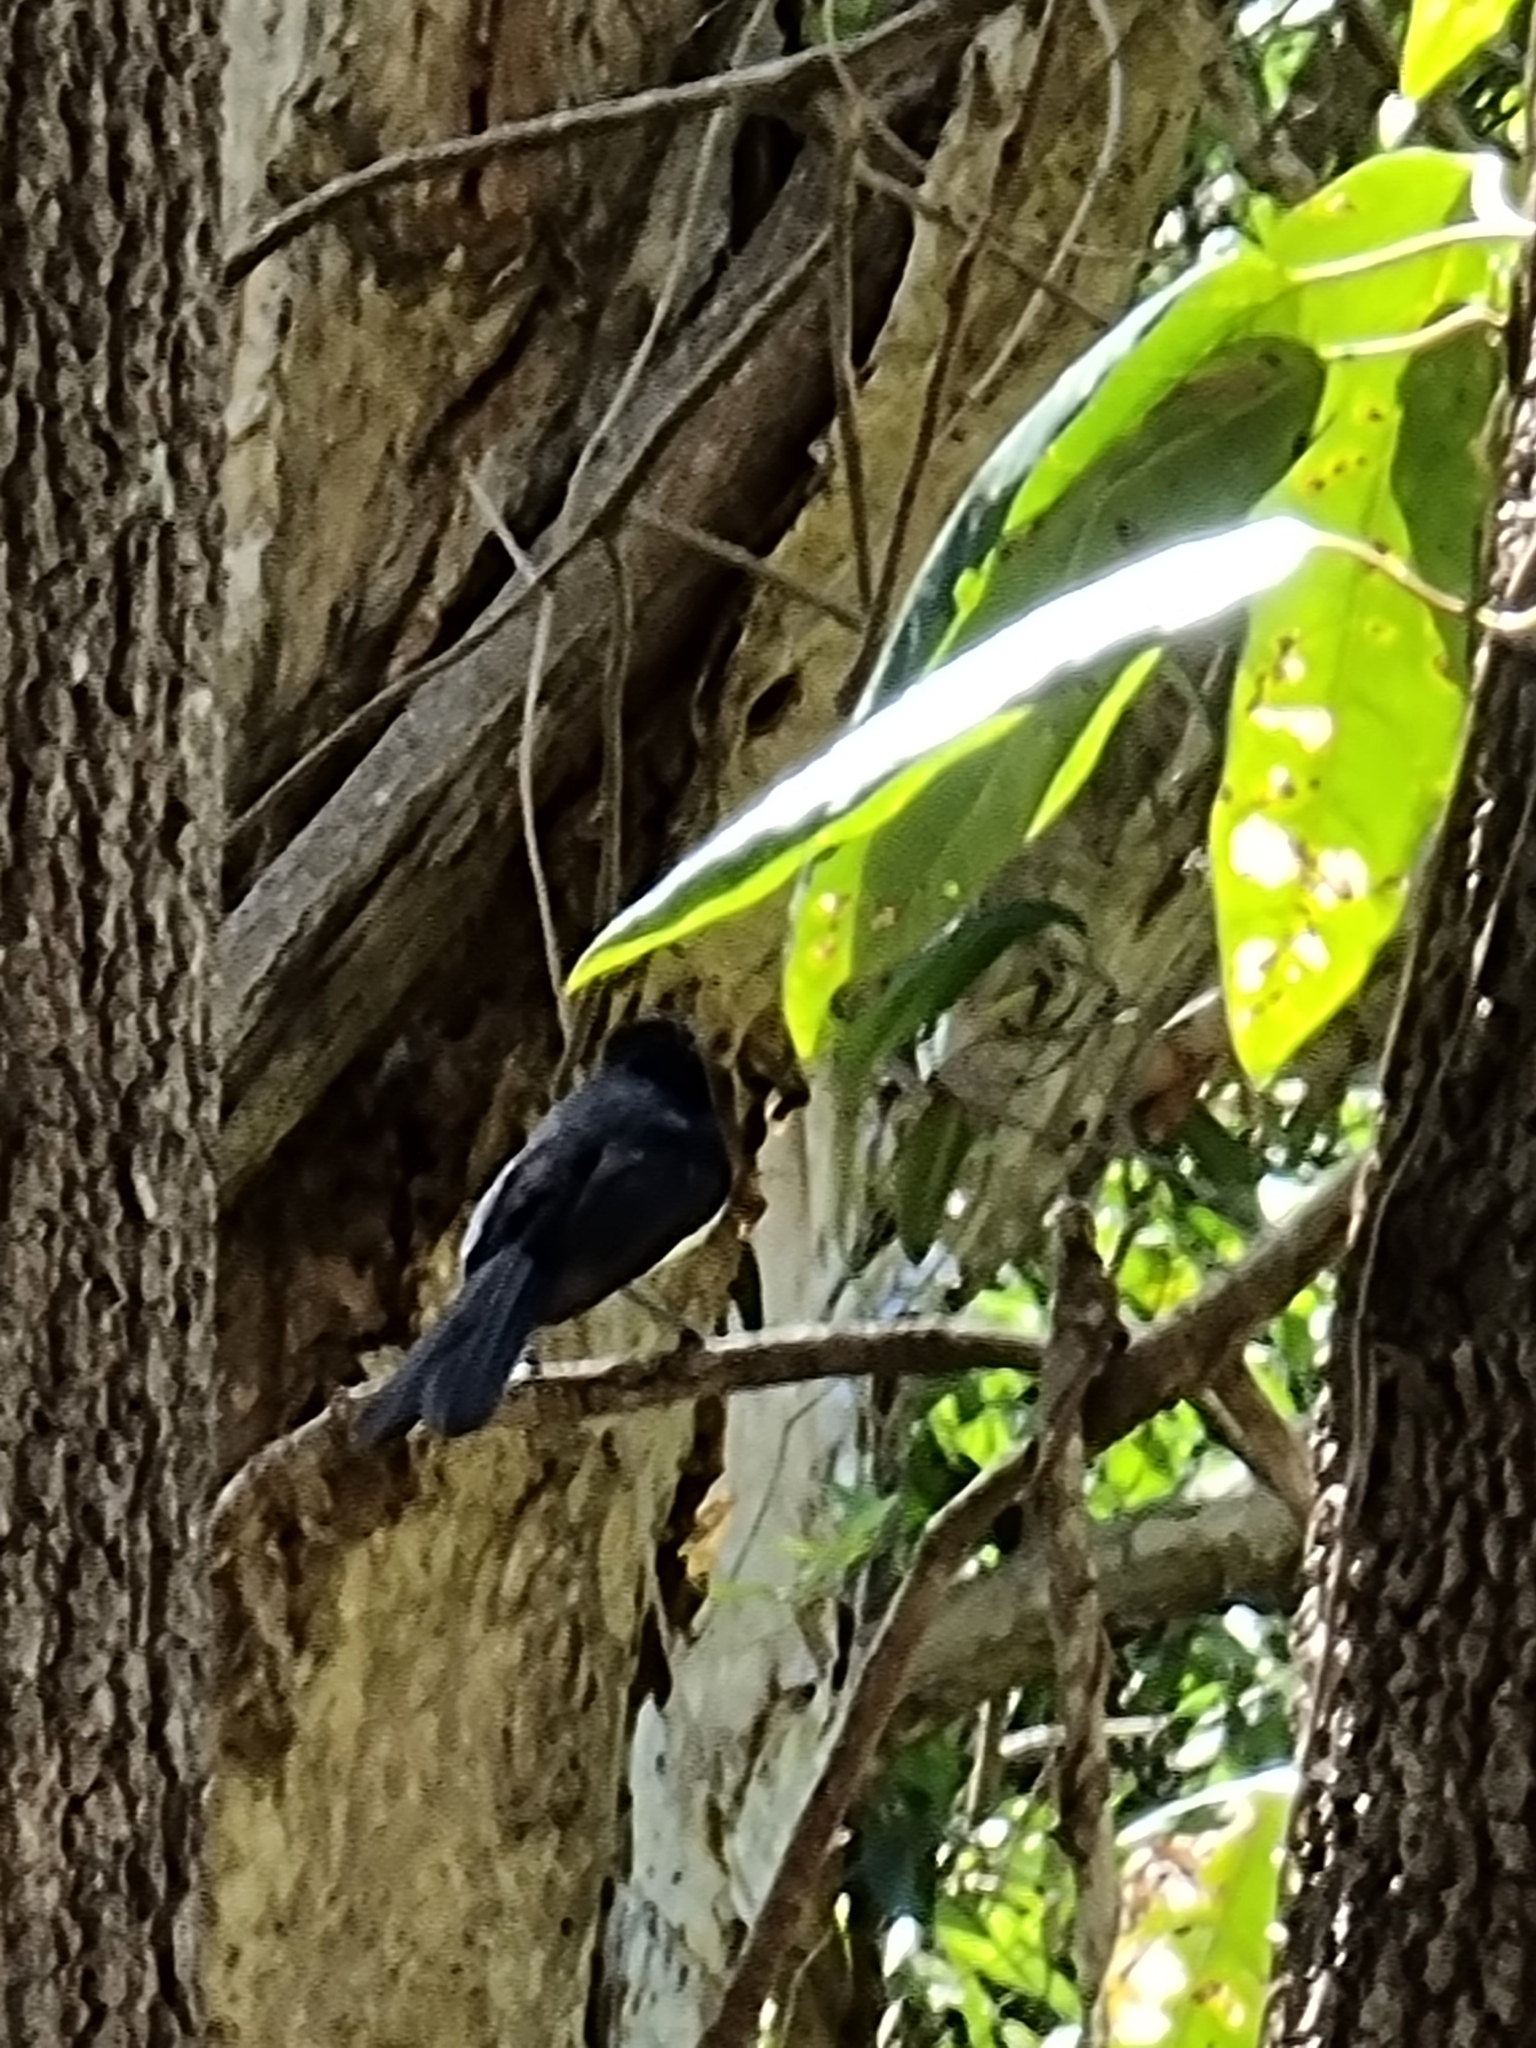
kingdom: Animalia
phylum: Chordata
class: Aves
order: Passeriformes
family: Rhipiduridae
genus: Rhipidura
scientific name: Rhipidura leucophrys
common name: Willie wagtail
